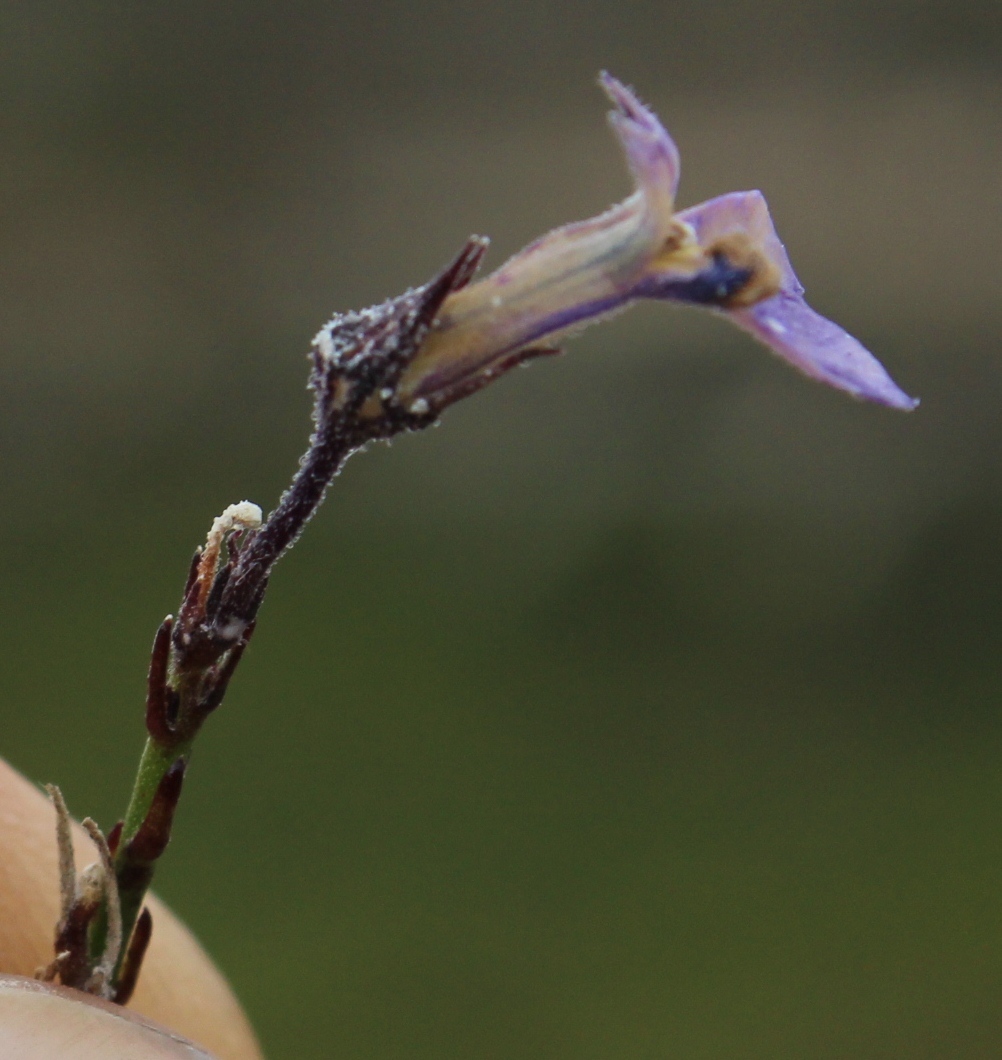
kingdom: Plantae
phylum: Tracheophyta
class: Magnoliopsida
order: Asterales
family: Campanulaceae
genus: Lobelia
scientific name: Lobelia linearis
